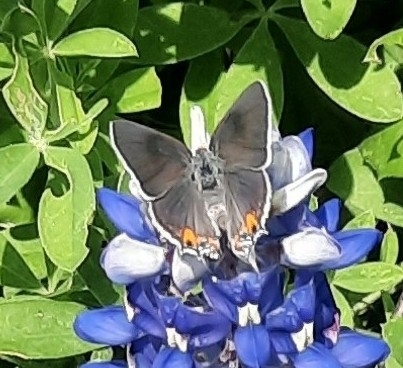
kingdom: Animalia
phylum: Arthropoda
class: Insecta
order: Lepidoptera
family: Lycaenidae
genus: Strymon
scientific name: Strymon melinus
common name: Gray hairstreak
